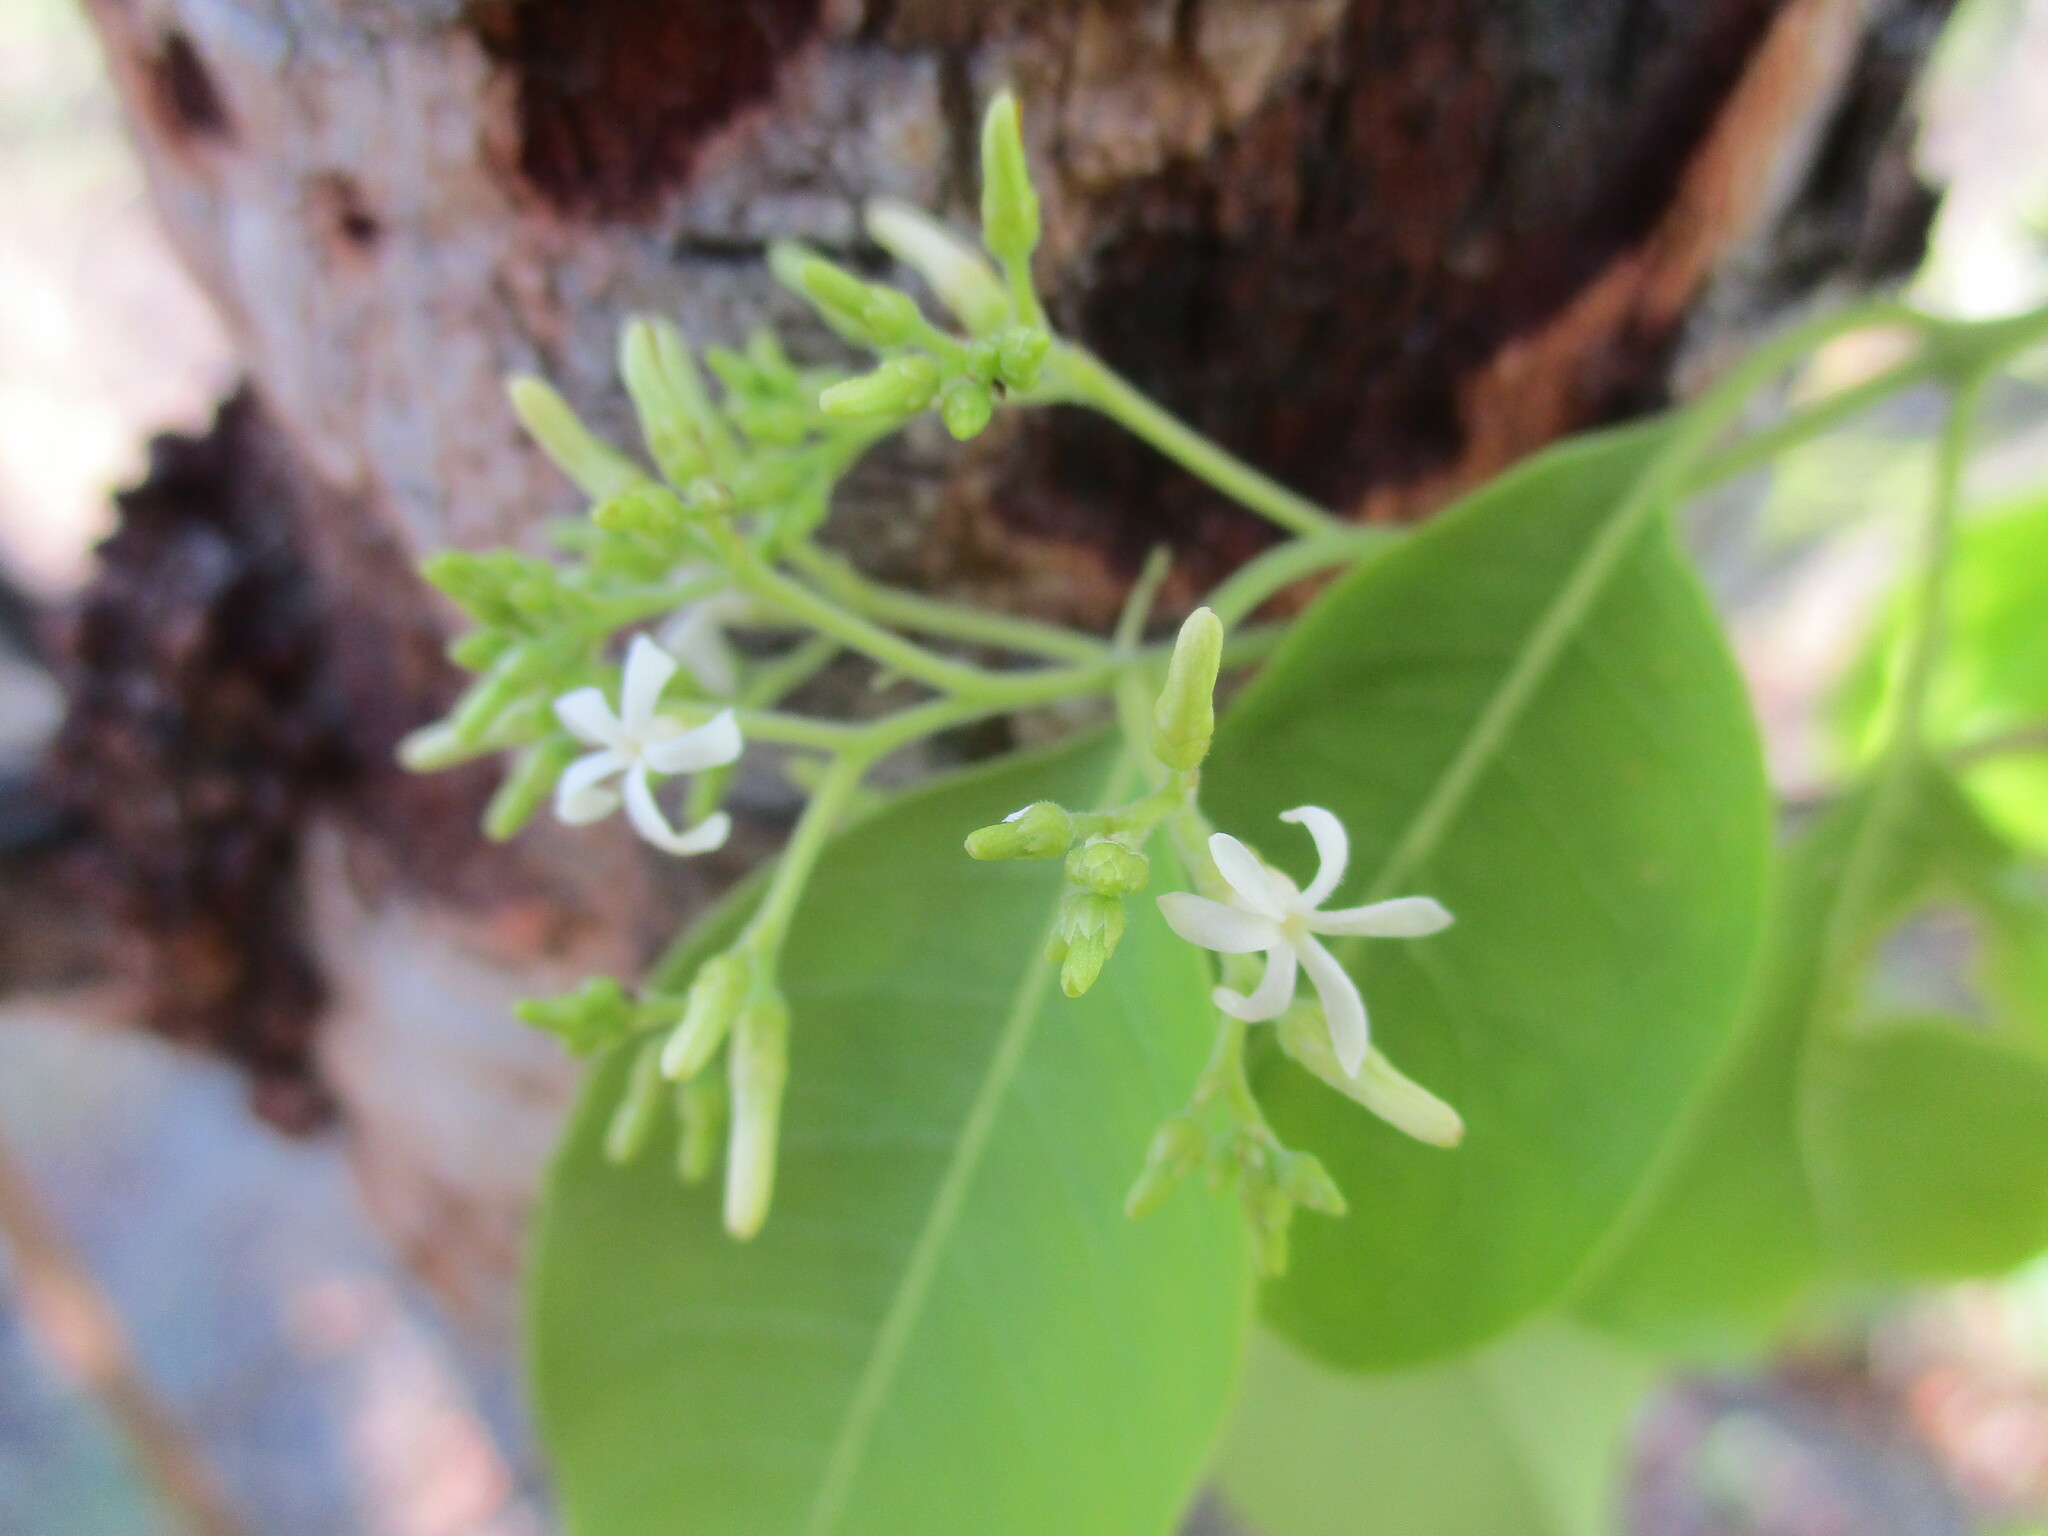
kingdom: Plantae
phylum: Tracheophyta
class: Magnoliopsida
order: Gentianales
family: Apocynaceae
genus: Diplorhynchus
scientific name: Diplorhynchus condylocarpon
